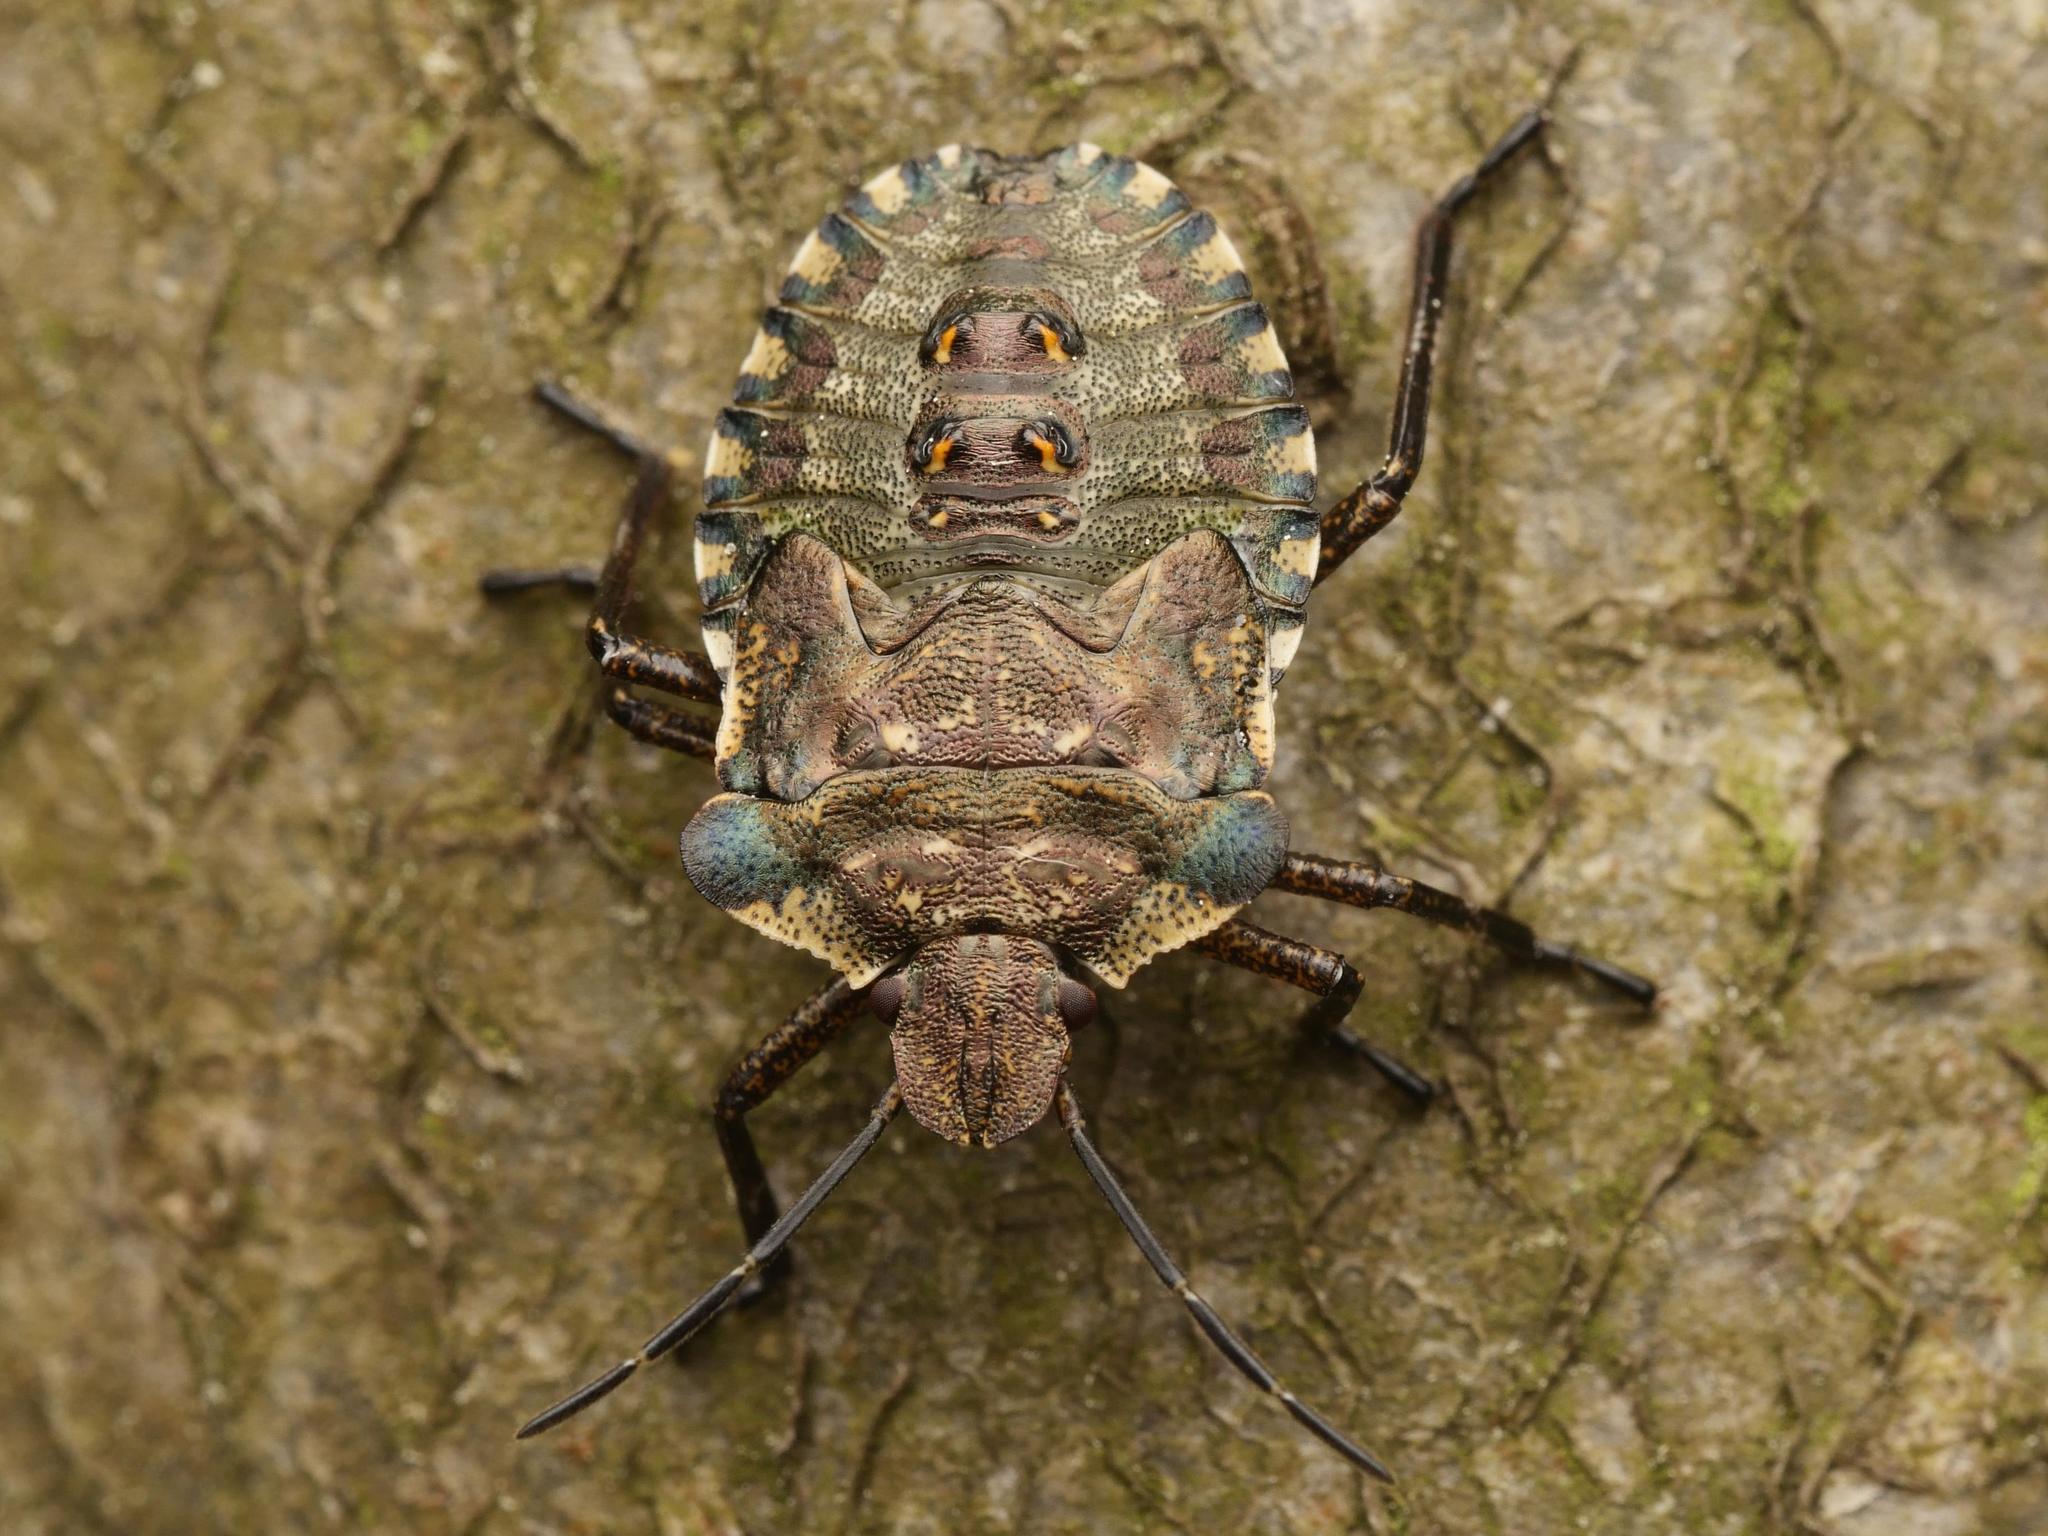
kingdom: Animalia
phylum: Arthropoda
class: Insecta
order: Hemiptera
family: Pentatomidae
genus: Pentatoma
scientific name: Pentatoma rufipes
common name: Forest bug
